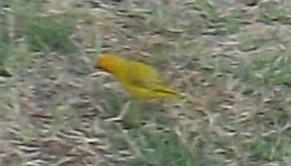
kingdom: Animalia
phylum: Chordata
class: Aves
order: Passeriformes
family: Thraupidae
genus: Sicalis
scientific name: Sicalis flaveola
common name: Saffron finch
